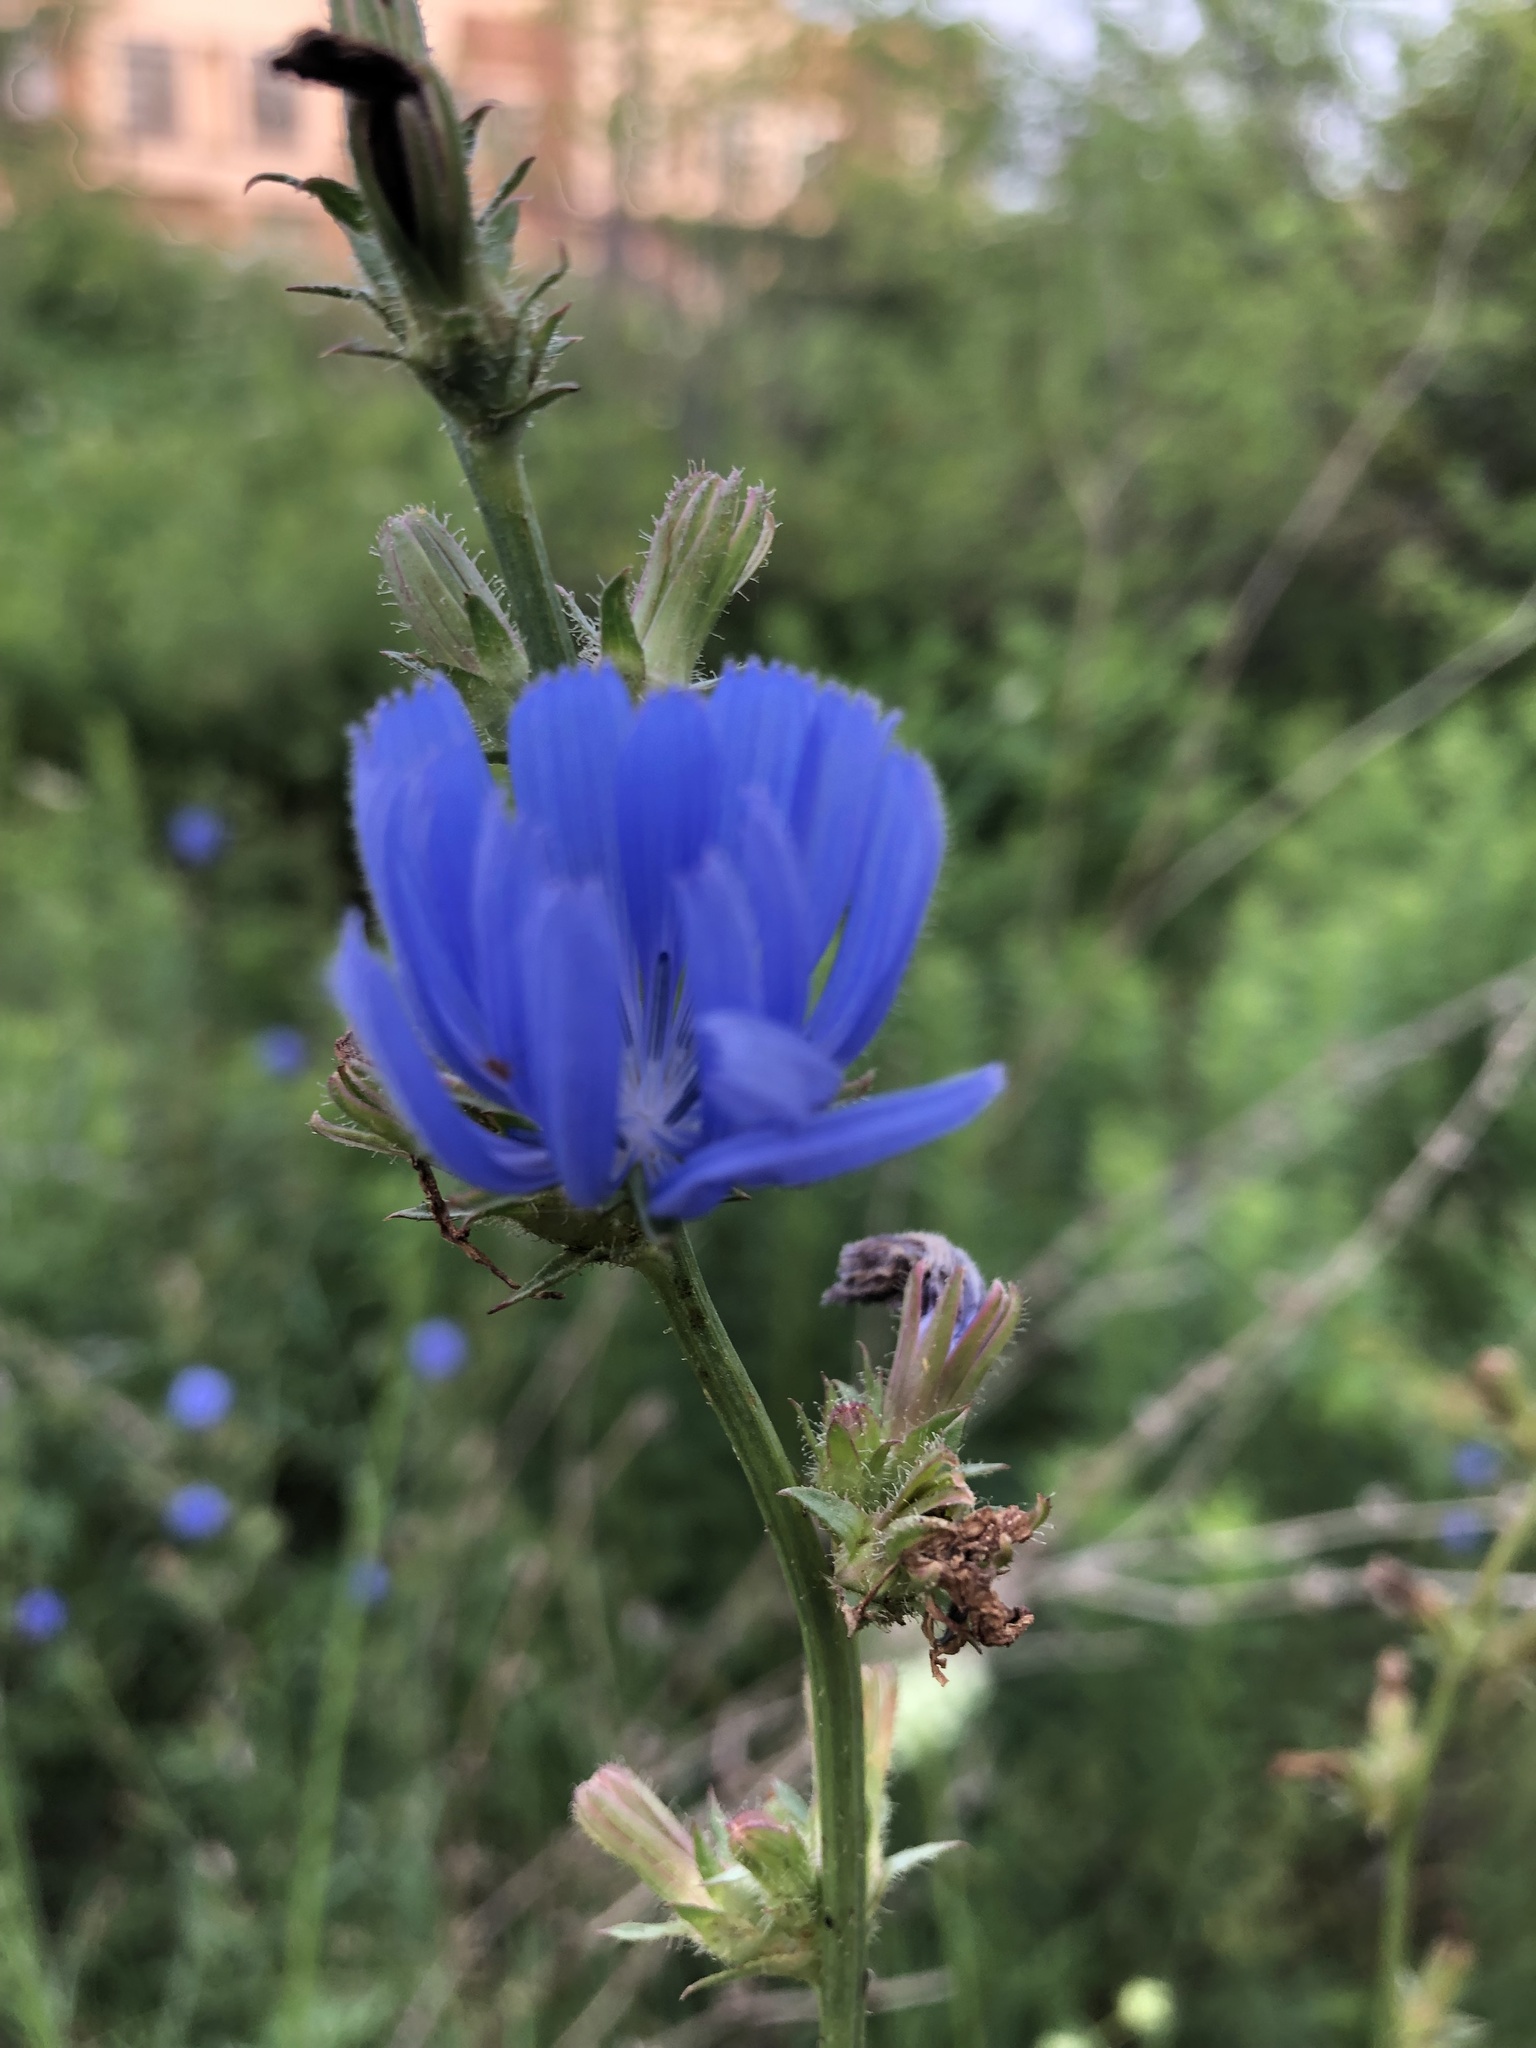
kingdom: Plantae
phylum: Tracheophyta
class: Magnoliopsida
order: Asterales
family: Asteraceae
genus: Cichorium
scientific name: Cichorium intybus
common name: Chicory
